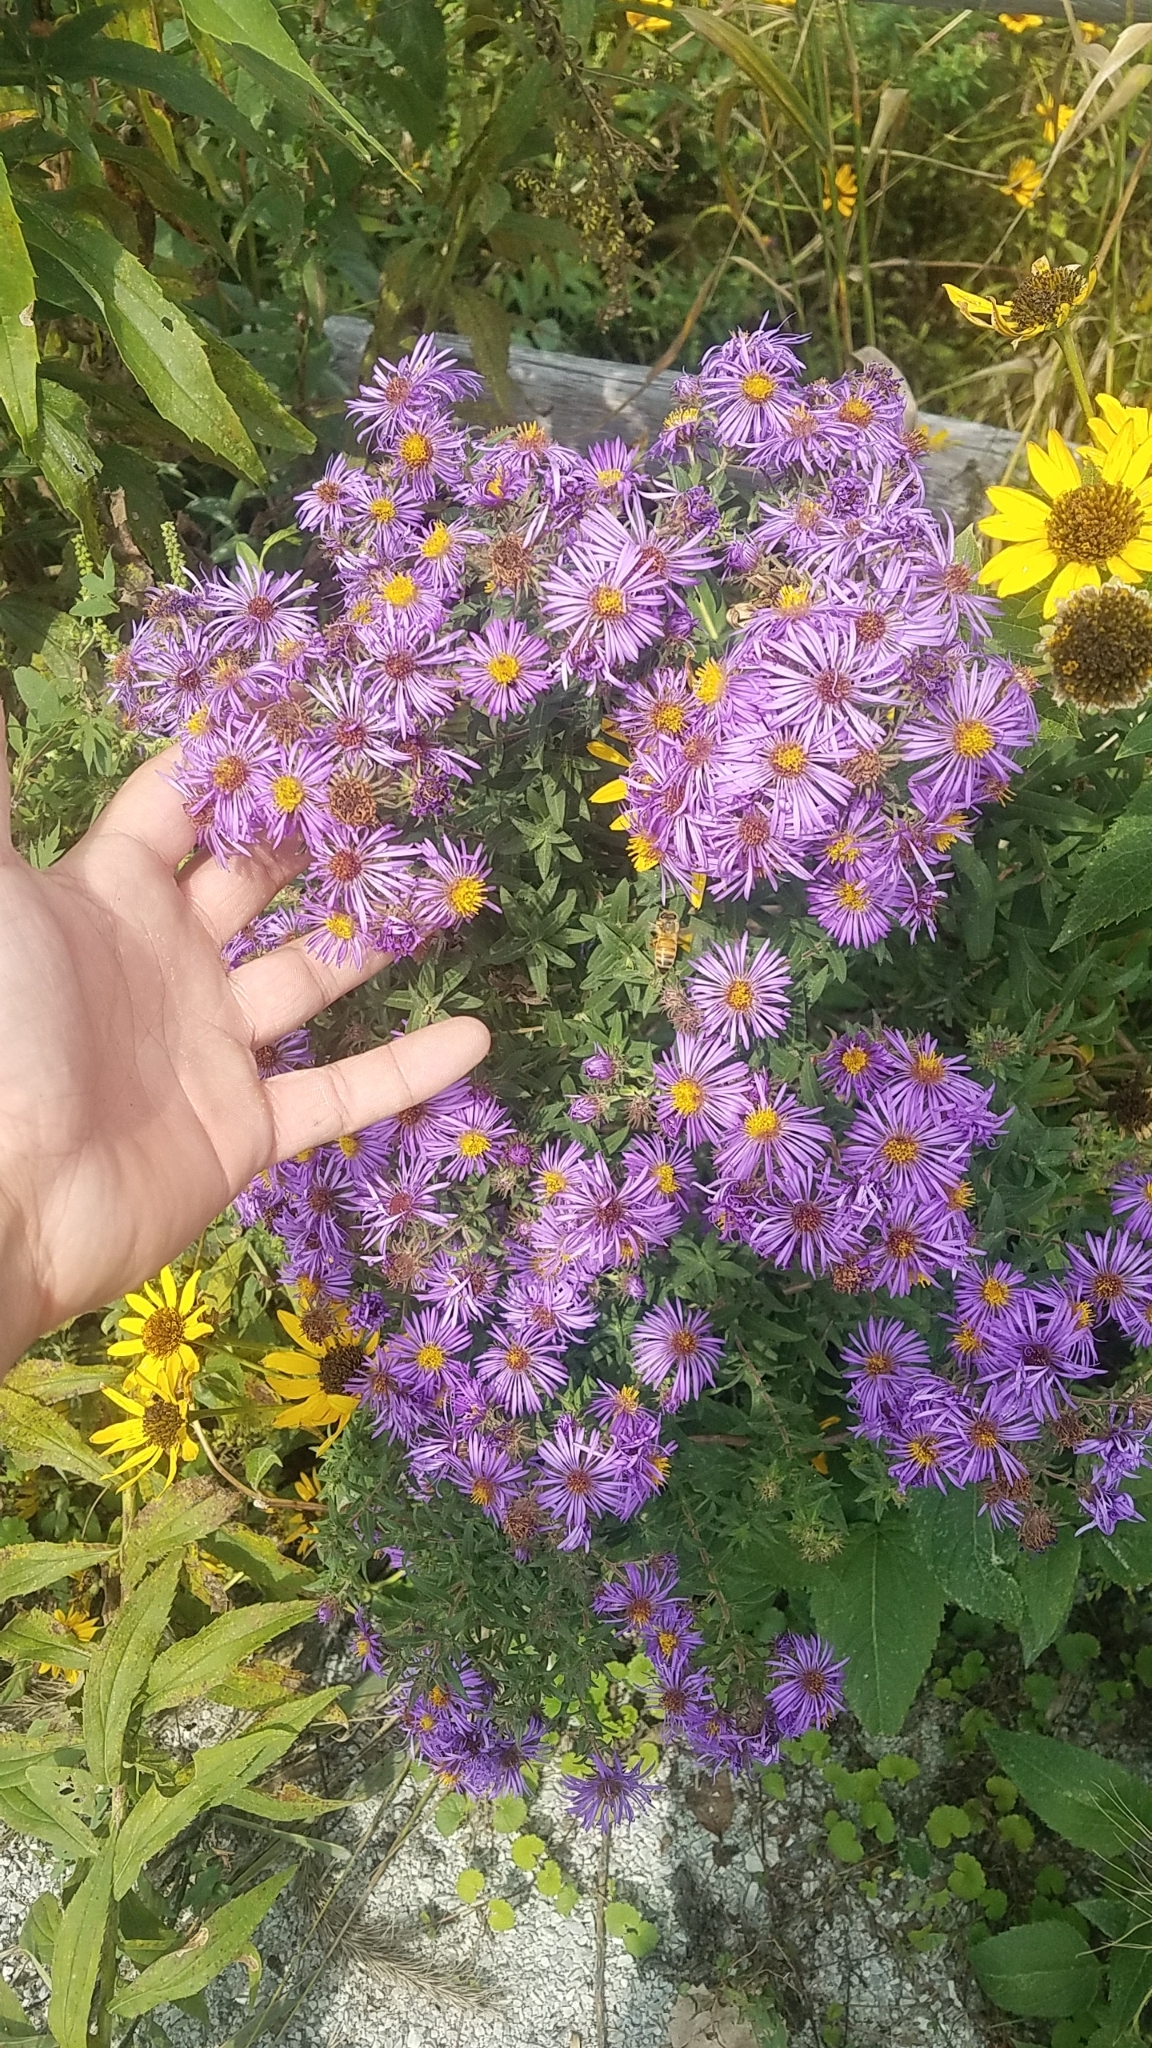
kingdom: Plantae
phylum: Tracheophyta
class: Magnoliopsida
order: Asterales
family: Asteraceae
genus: Symphyotrichum
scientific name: Symphyotrichum novae-angliae
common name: Michaelmas daisy
